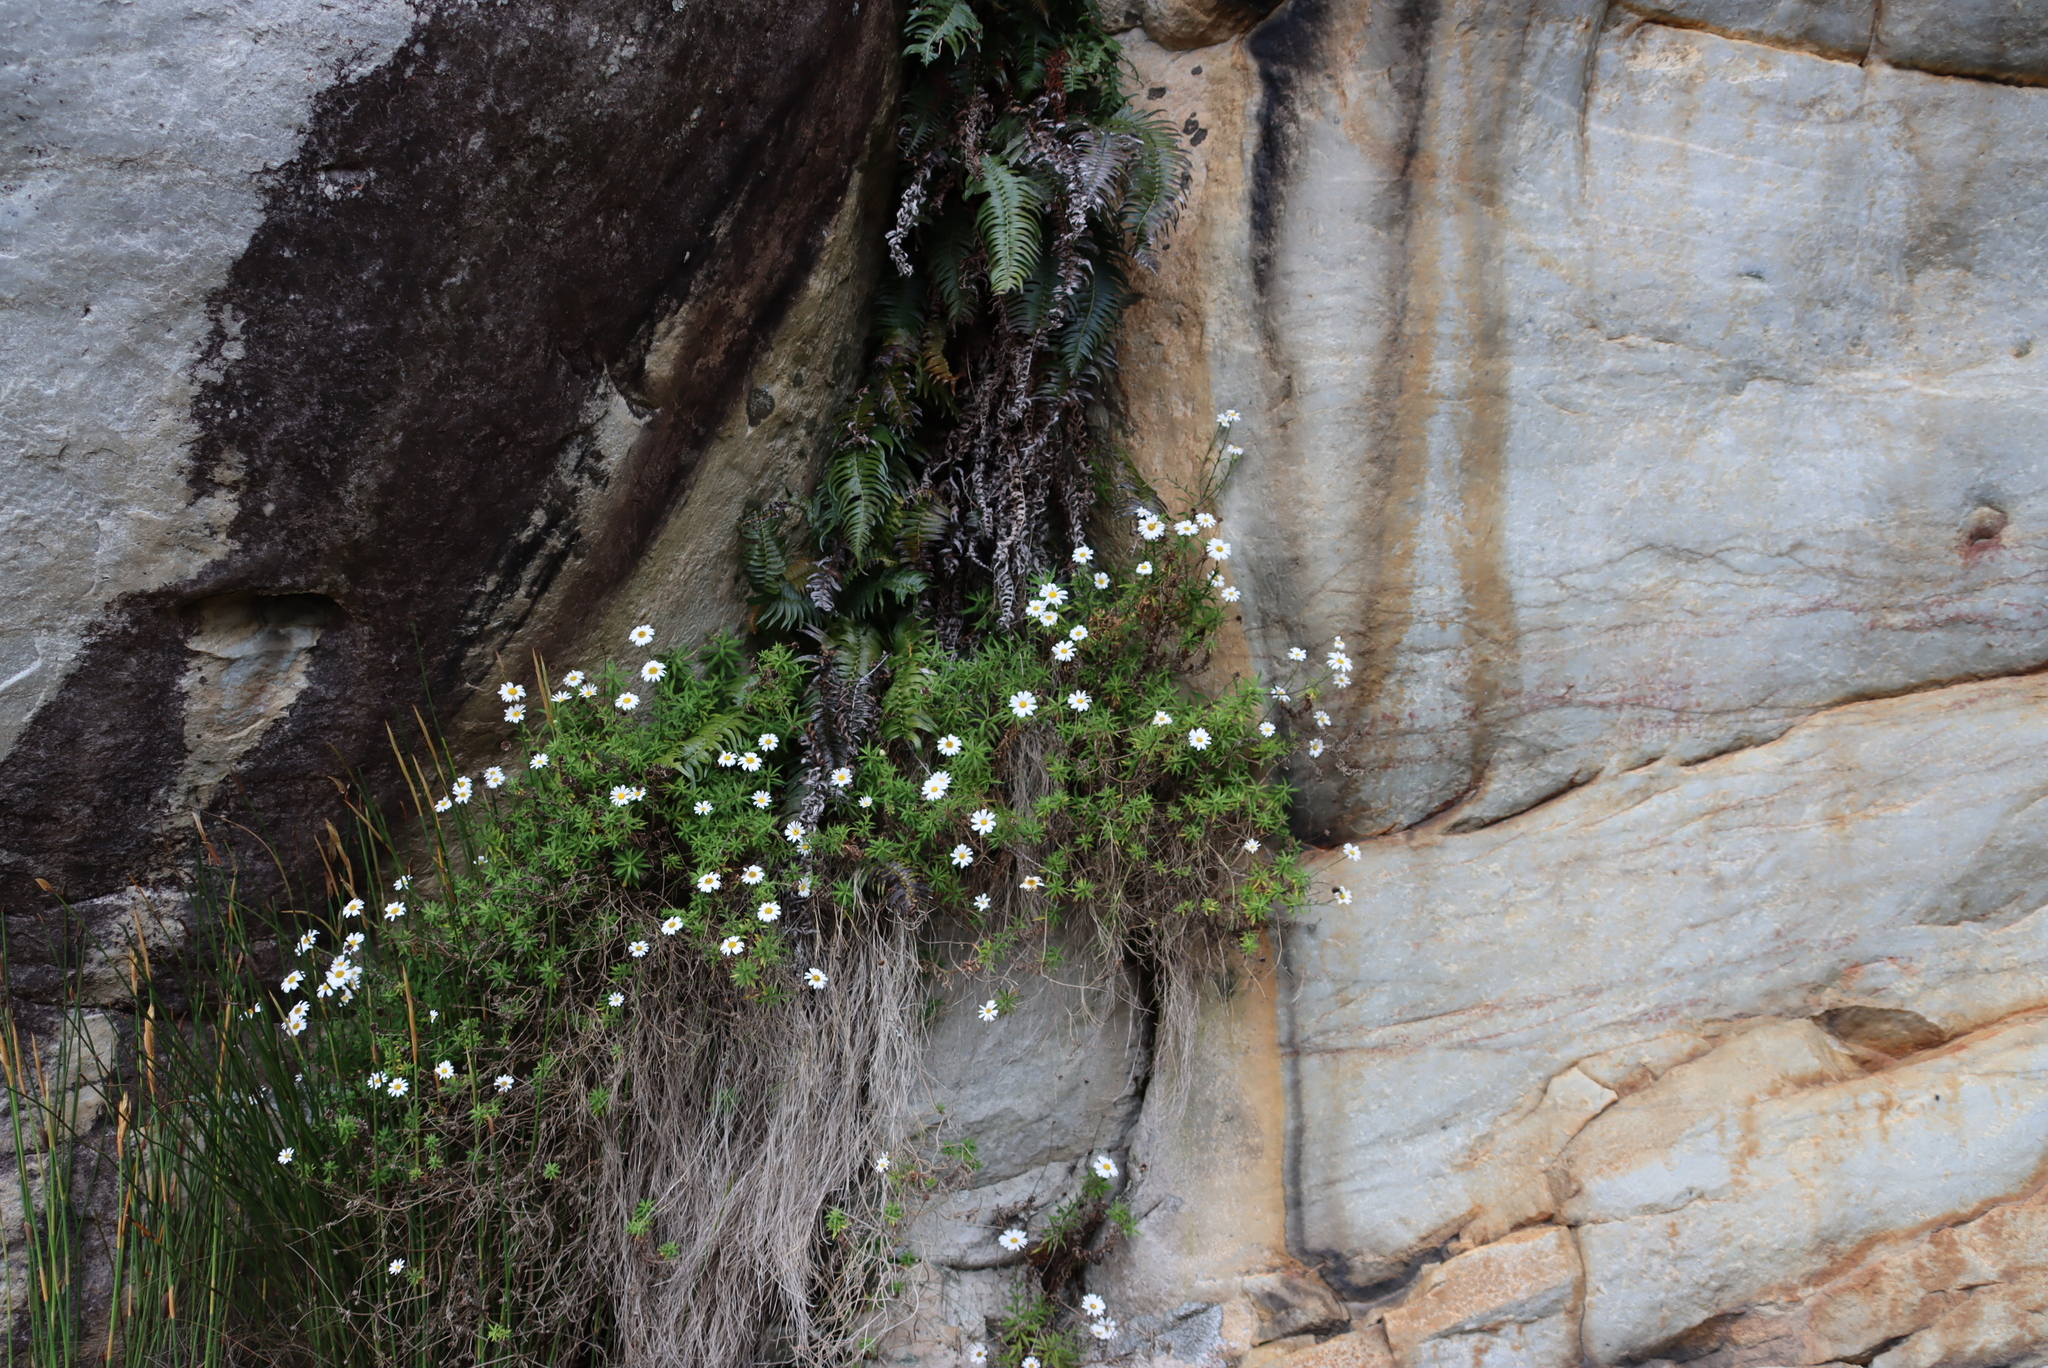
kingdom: Plantae
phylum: Tracheophyta
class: Magnoliopsida
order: Asterales
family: Asteraceae
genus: Osmitopsis
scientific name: Osmitopsis osmitoides
